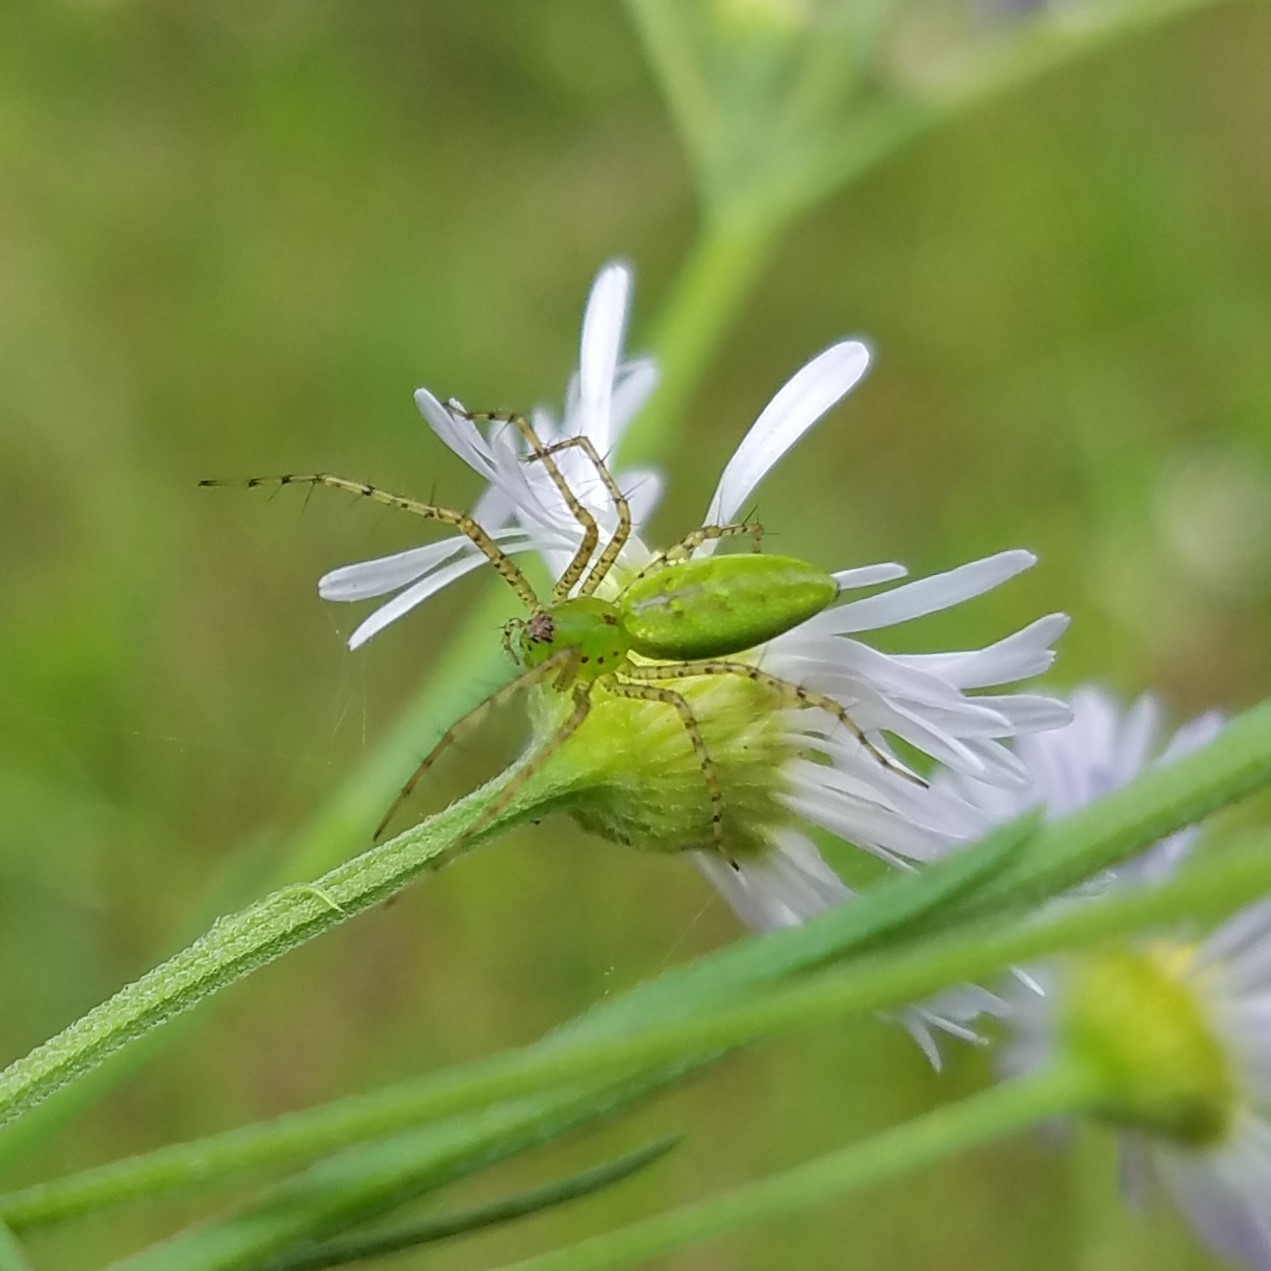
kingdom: Animalia
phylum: Arthropoda
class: Arachnida
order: Araneae
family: Oxyopidae
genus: Peucetia
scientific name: Peucetia viridans
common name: Lynx spiders
